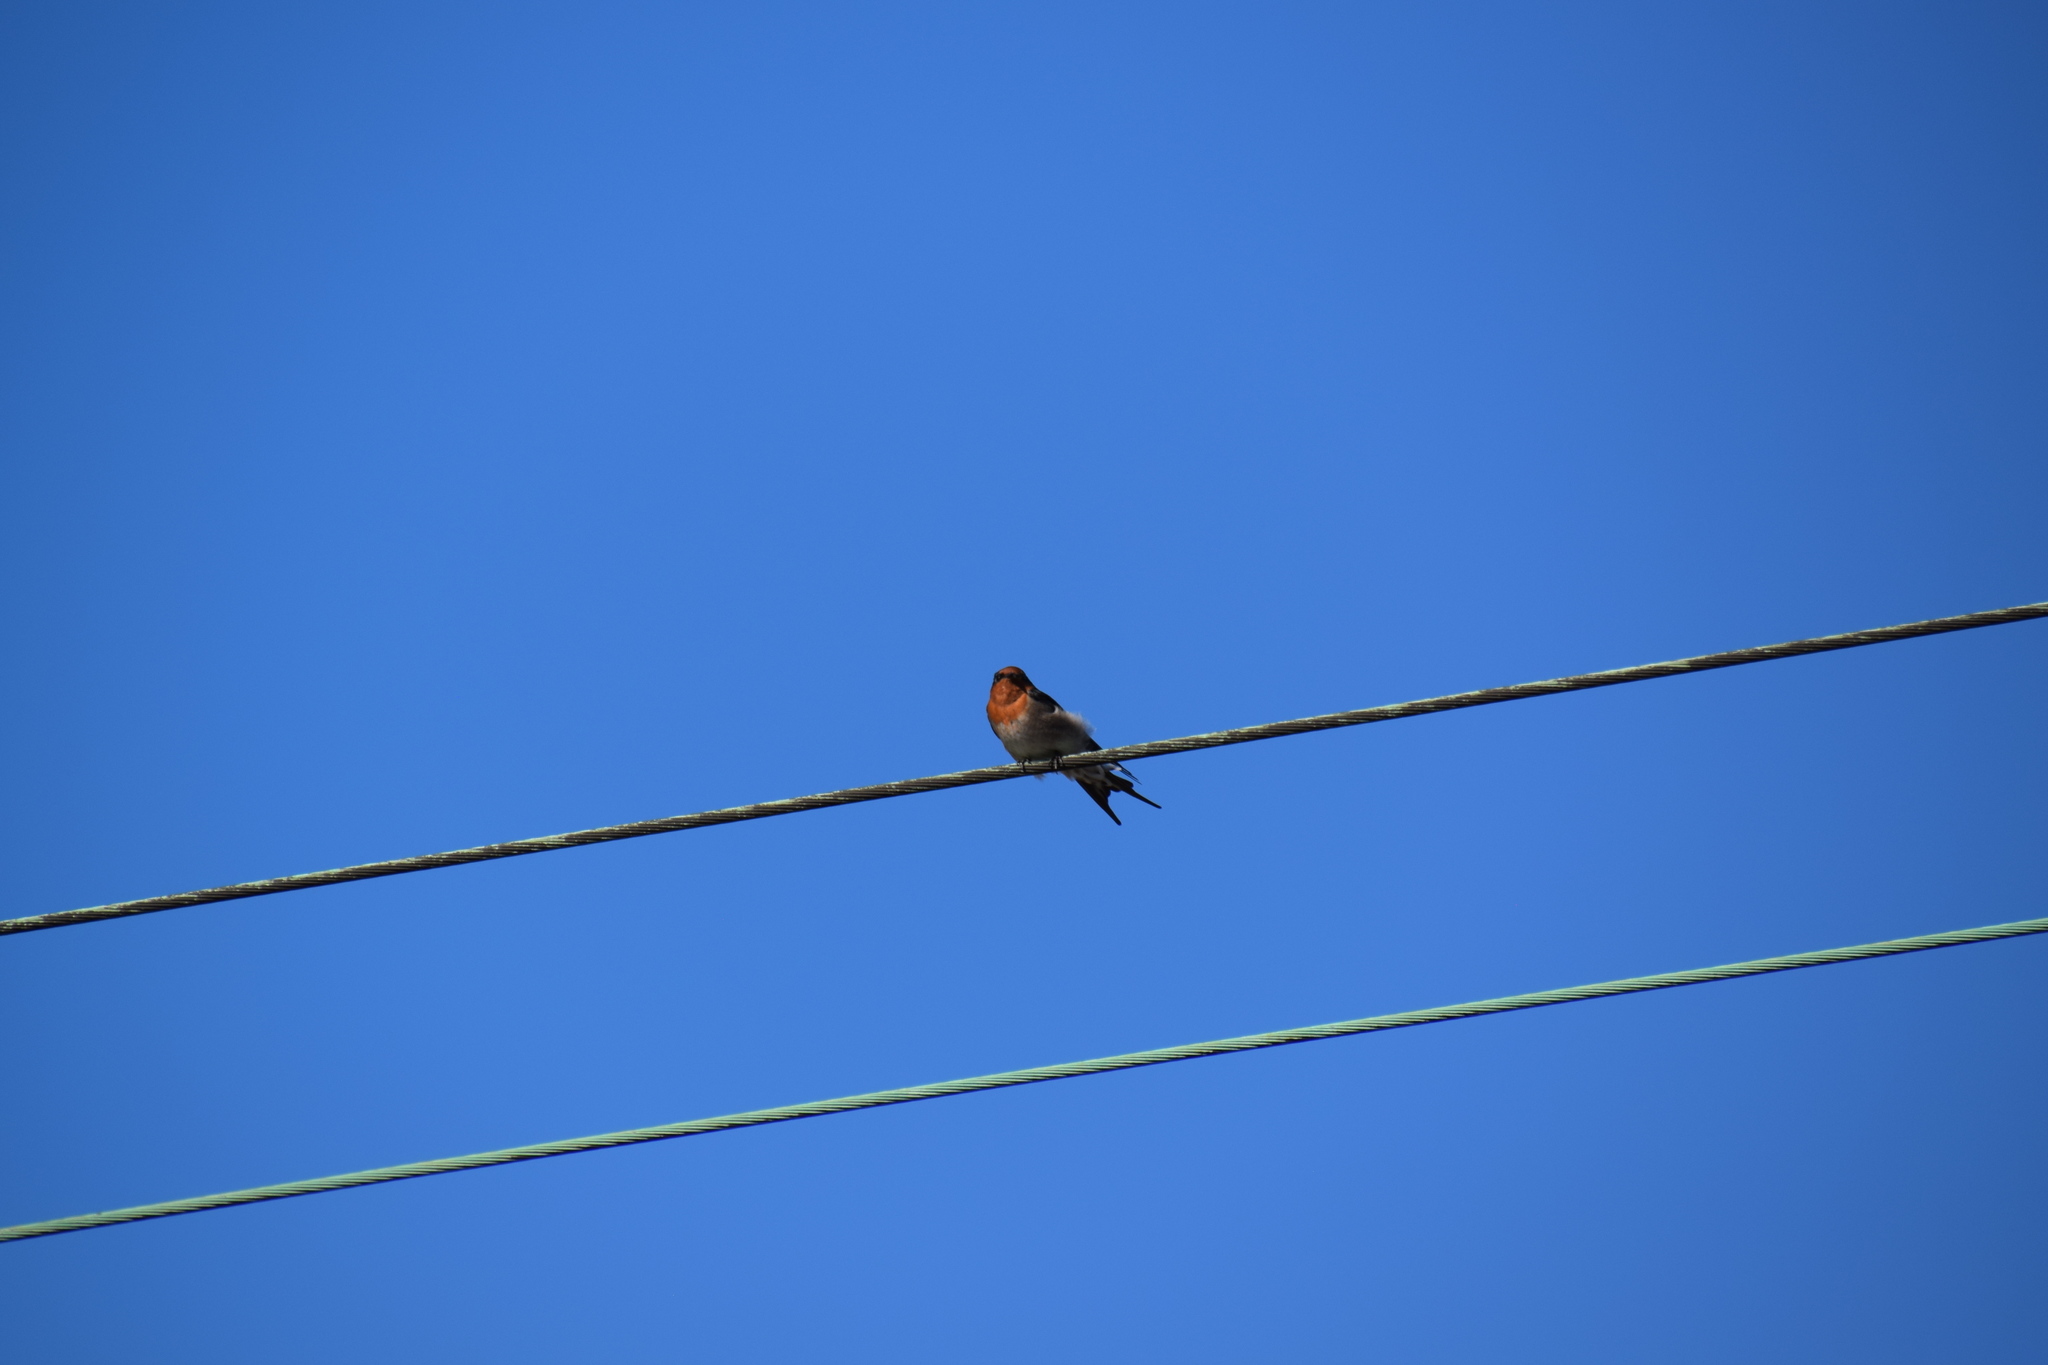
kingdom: Animalia
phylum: Chordata
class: Aves
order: Passeriformes
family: Hirundinidae
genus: Hirundo
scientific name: Hirundo neoxena
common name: Welcome swallow
